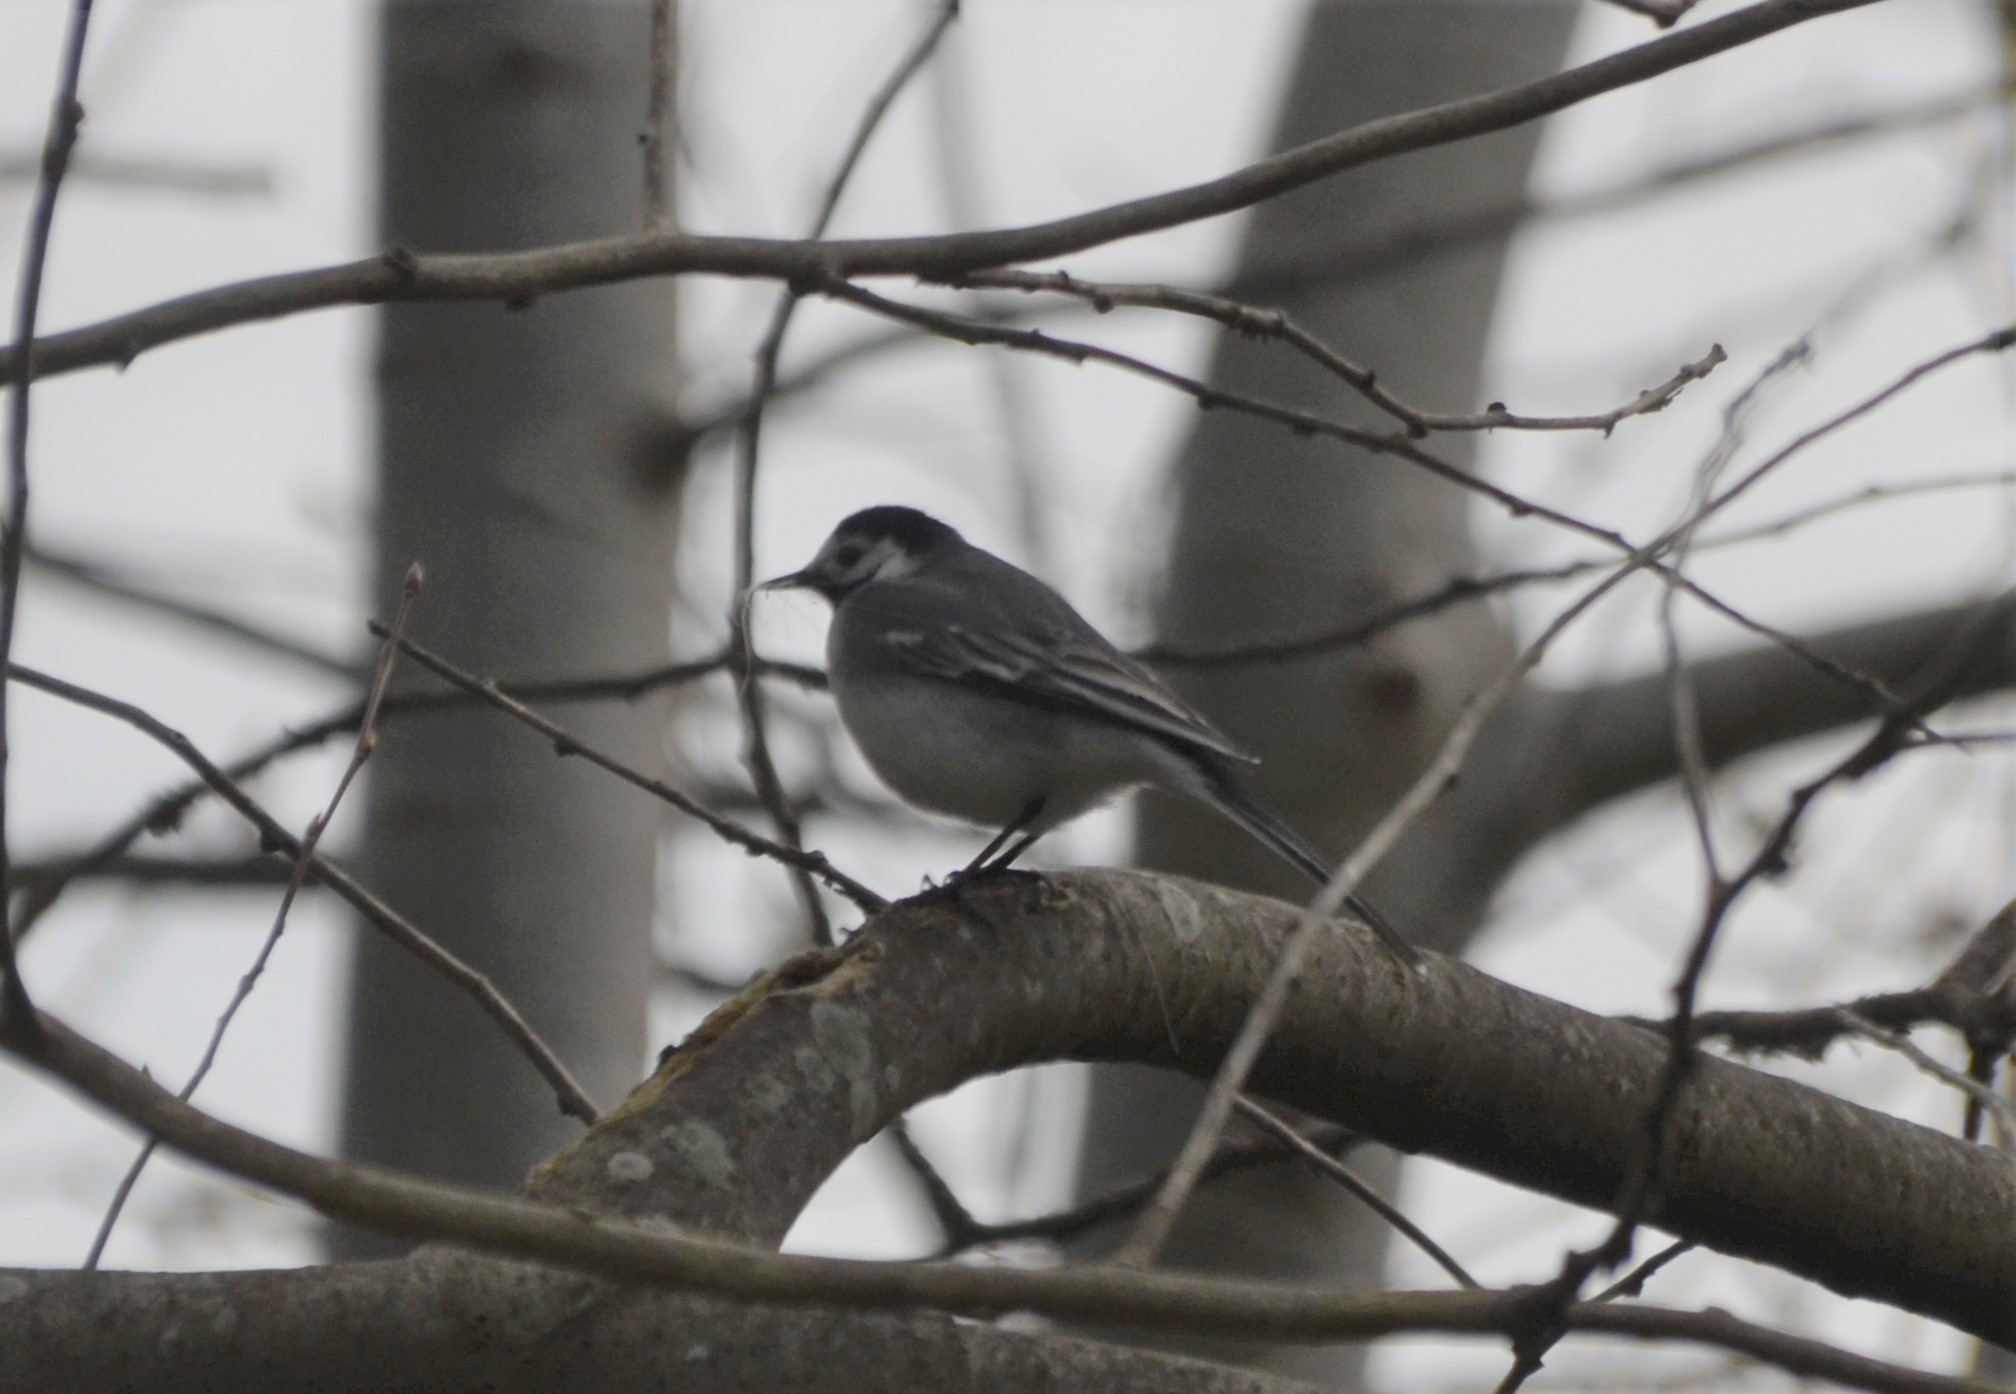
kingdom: Animalia
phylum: Chordata
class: Aves
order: Passeriformes
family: Motacillidae
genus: Motacilla
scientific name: Motacilla alba
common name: White wagtail
